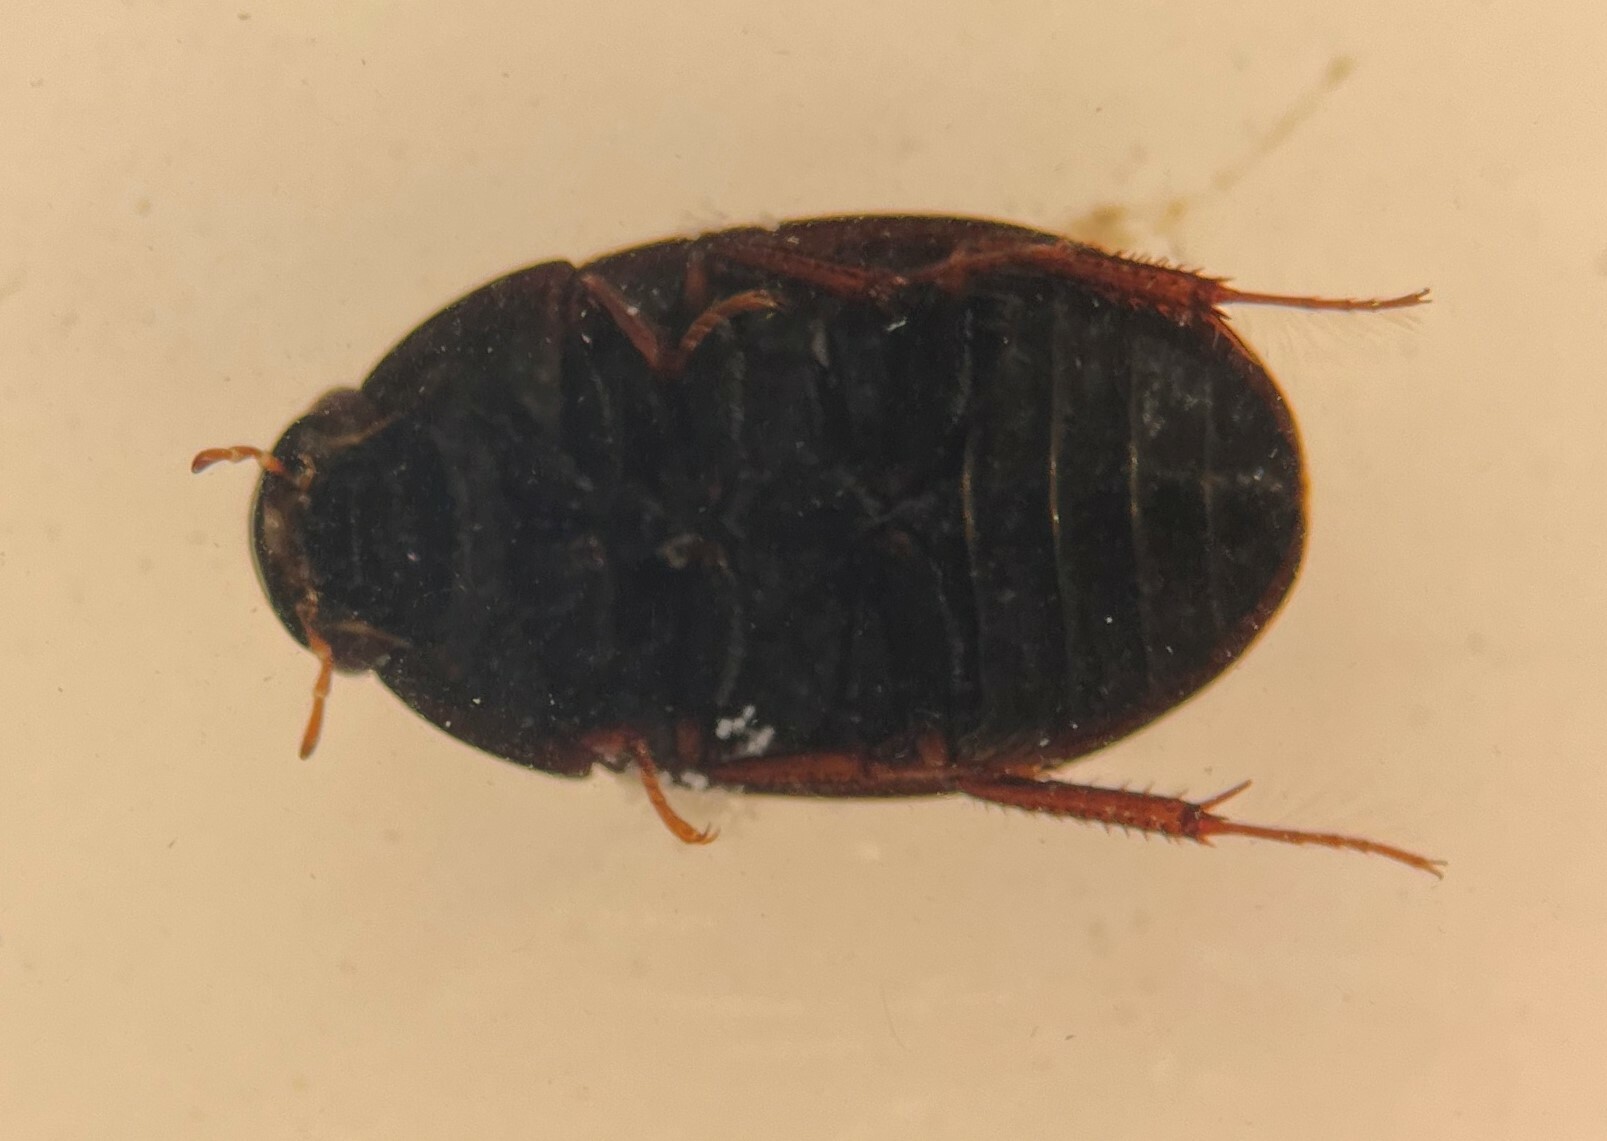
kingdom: Animalia
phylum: Arthropoda
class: Insecta
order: Coleoptera
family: Hydrophilidae
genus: Hydrobius
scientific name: Hydrobius fuscipes
